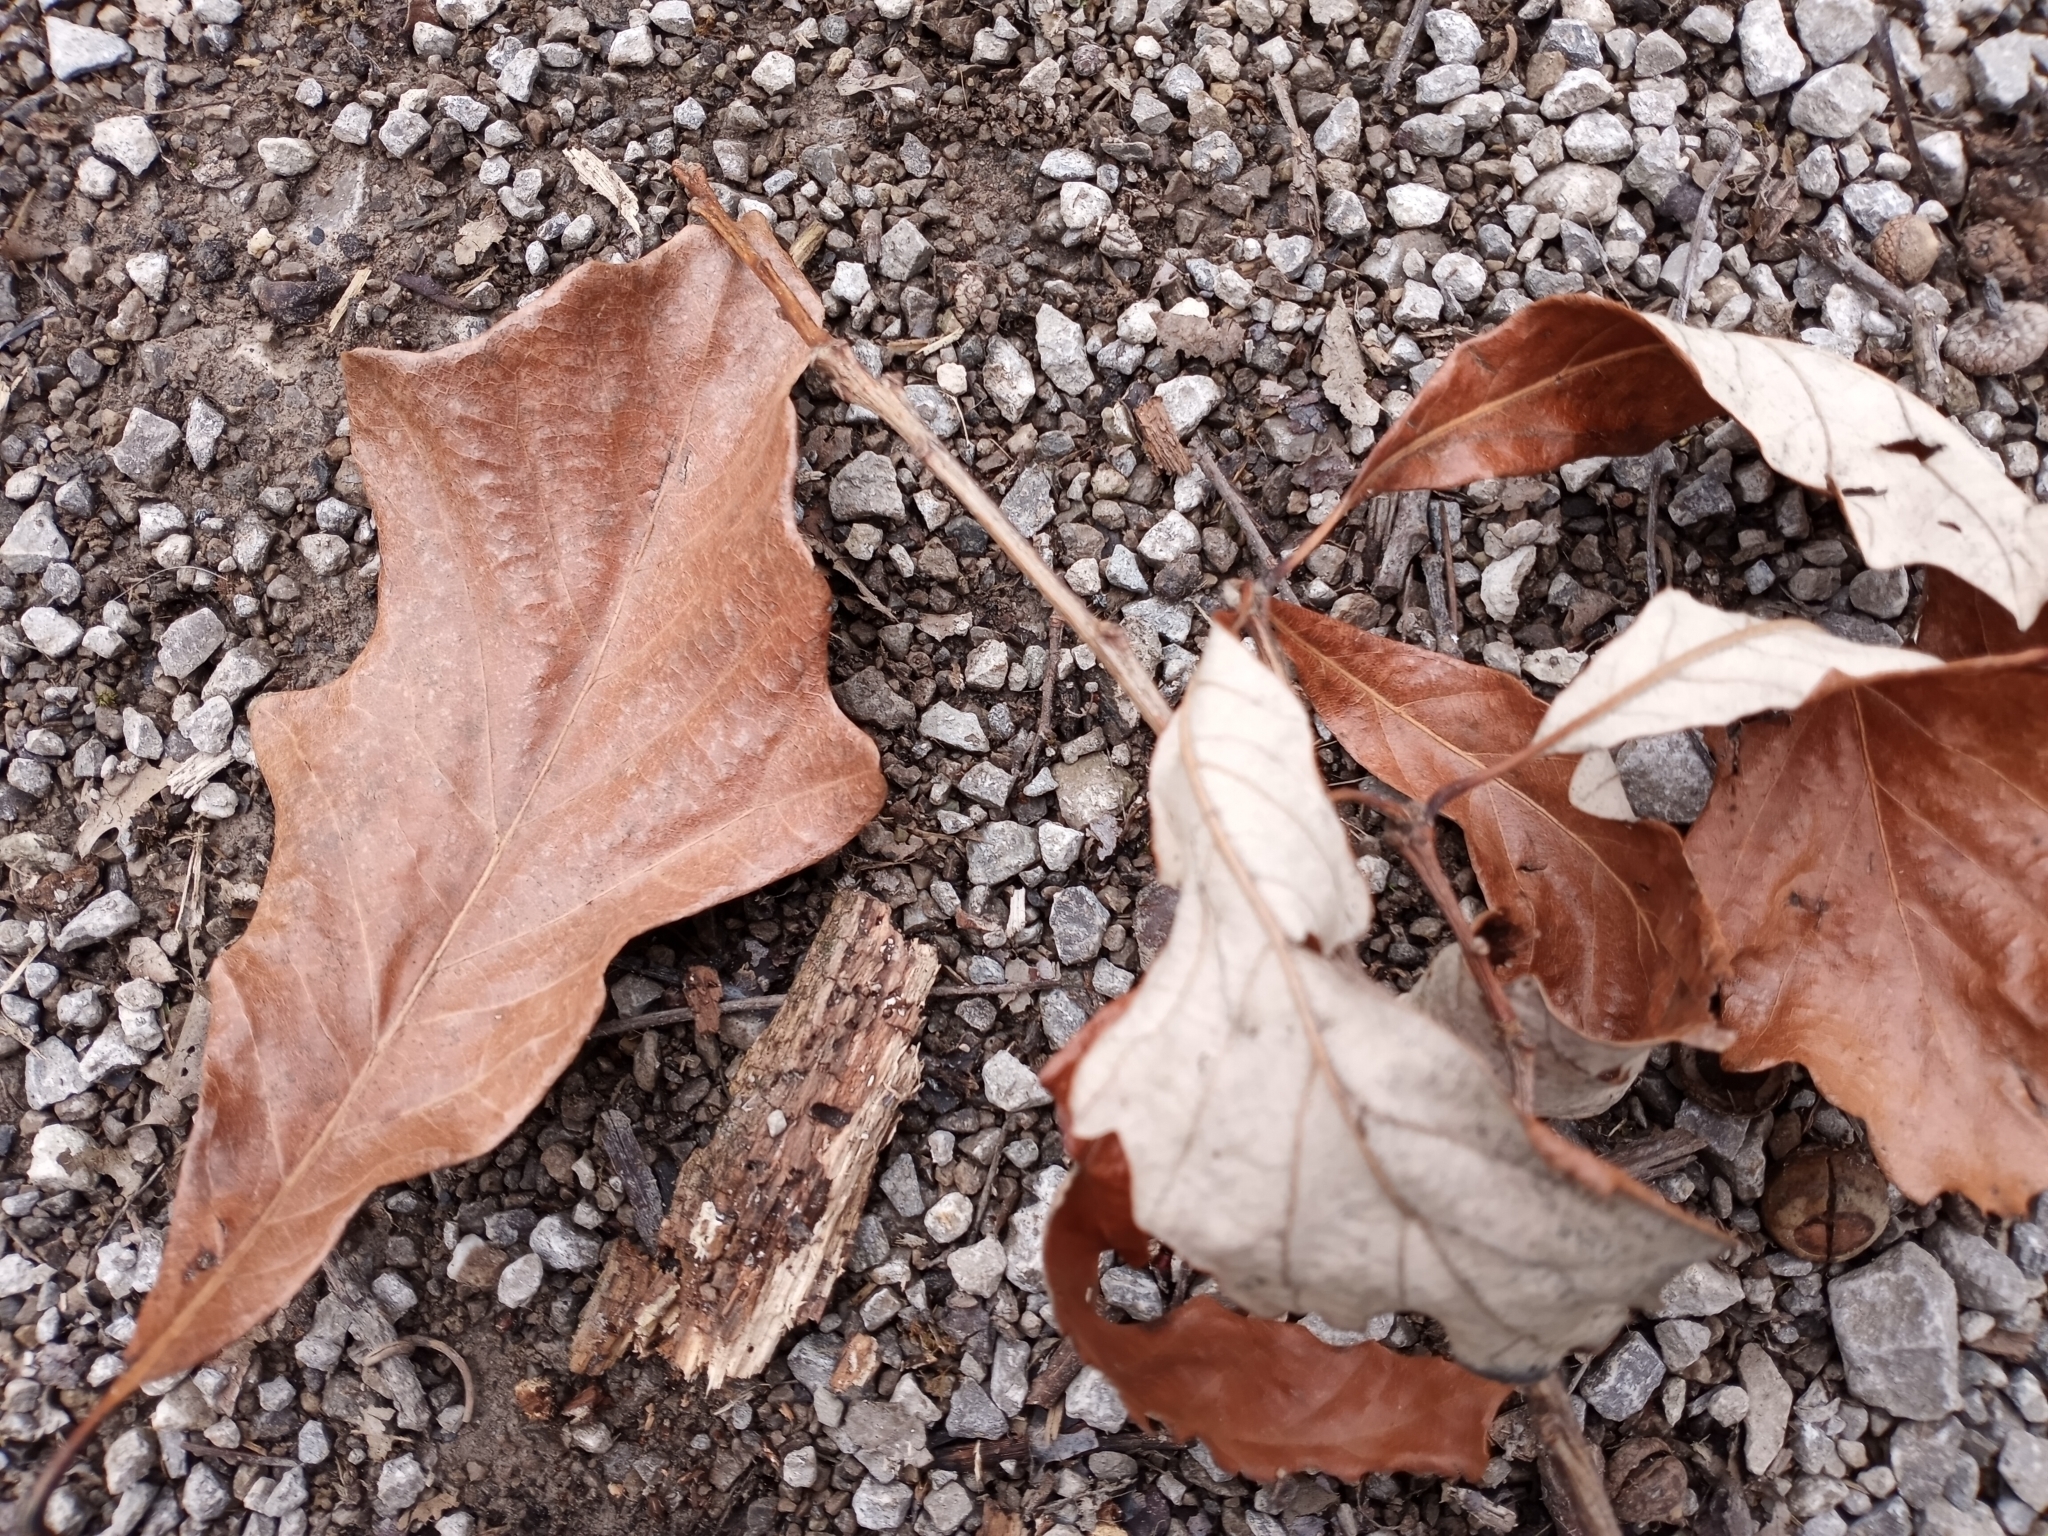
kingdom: Plantae
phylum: Tracheophyta
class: Magnoliopsida
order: Fagales
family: Fagaceae
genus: Quercus
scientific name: Quercus bicolor
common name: Swamp white oak
